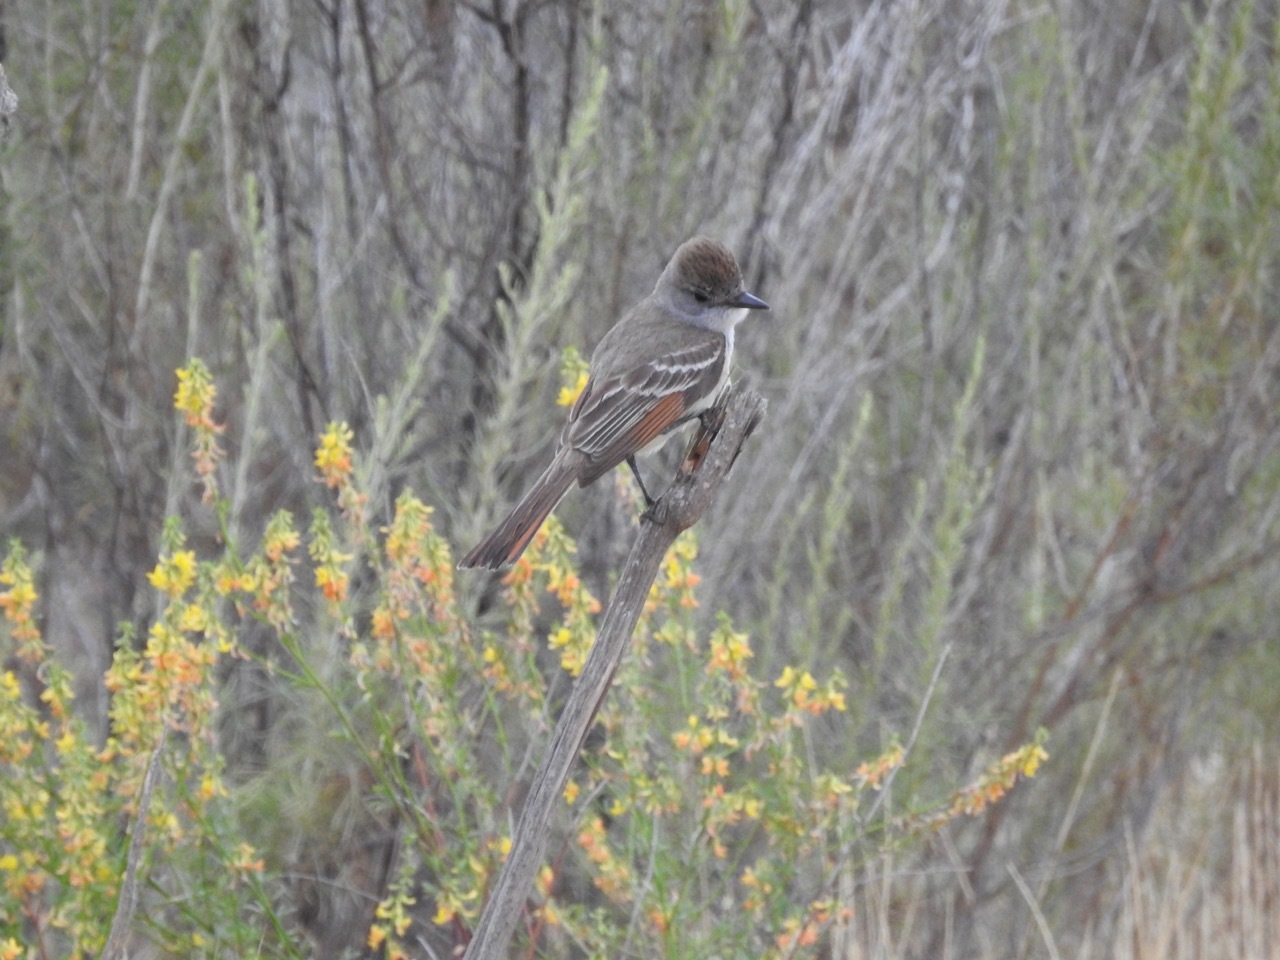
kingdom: Animalia
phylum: Chordata
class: Aves
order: Passeriformes
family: Tyrannidae
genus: Myiarchus
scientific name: Myiarchus cinerascens
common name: Ash-throated flycatcher
